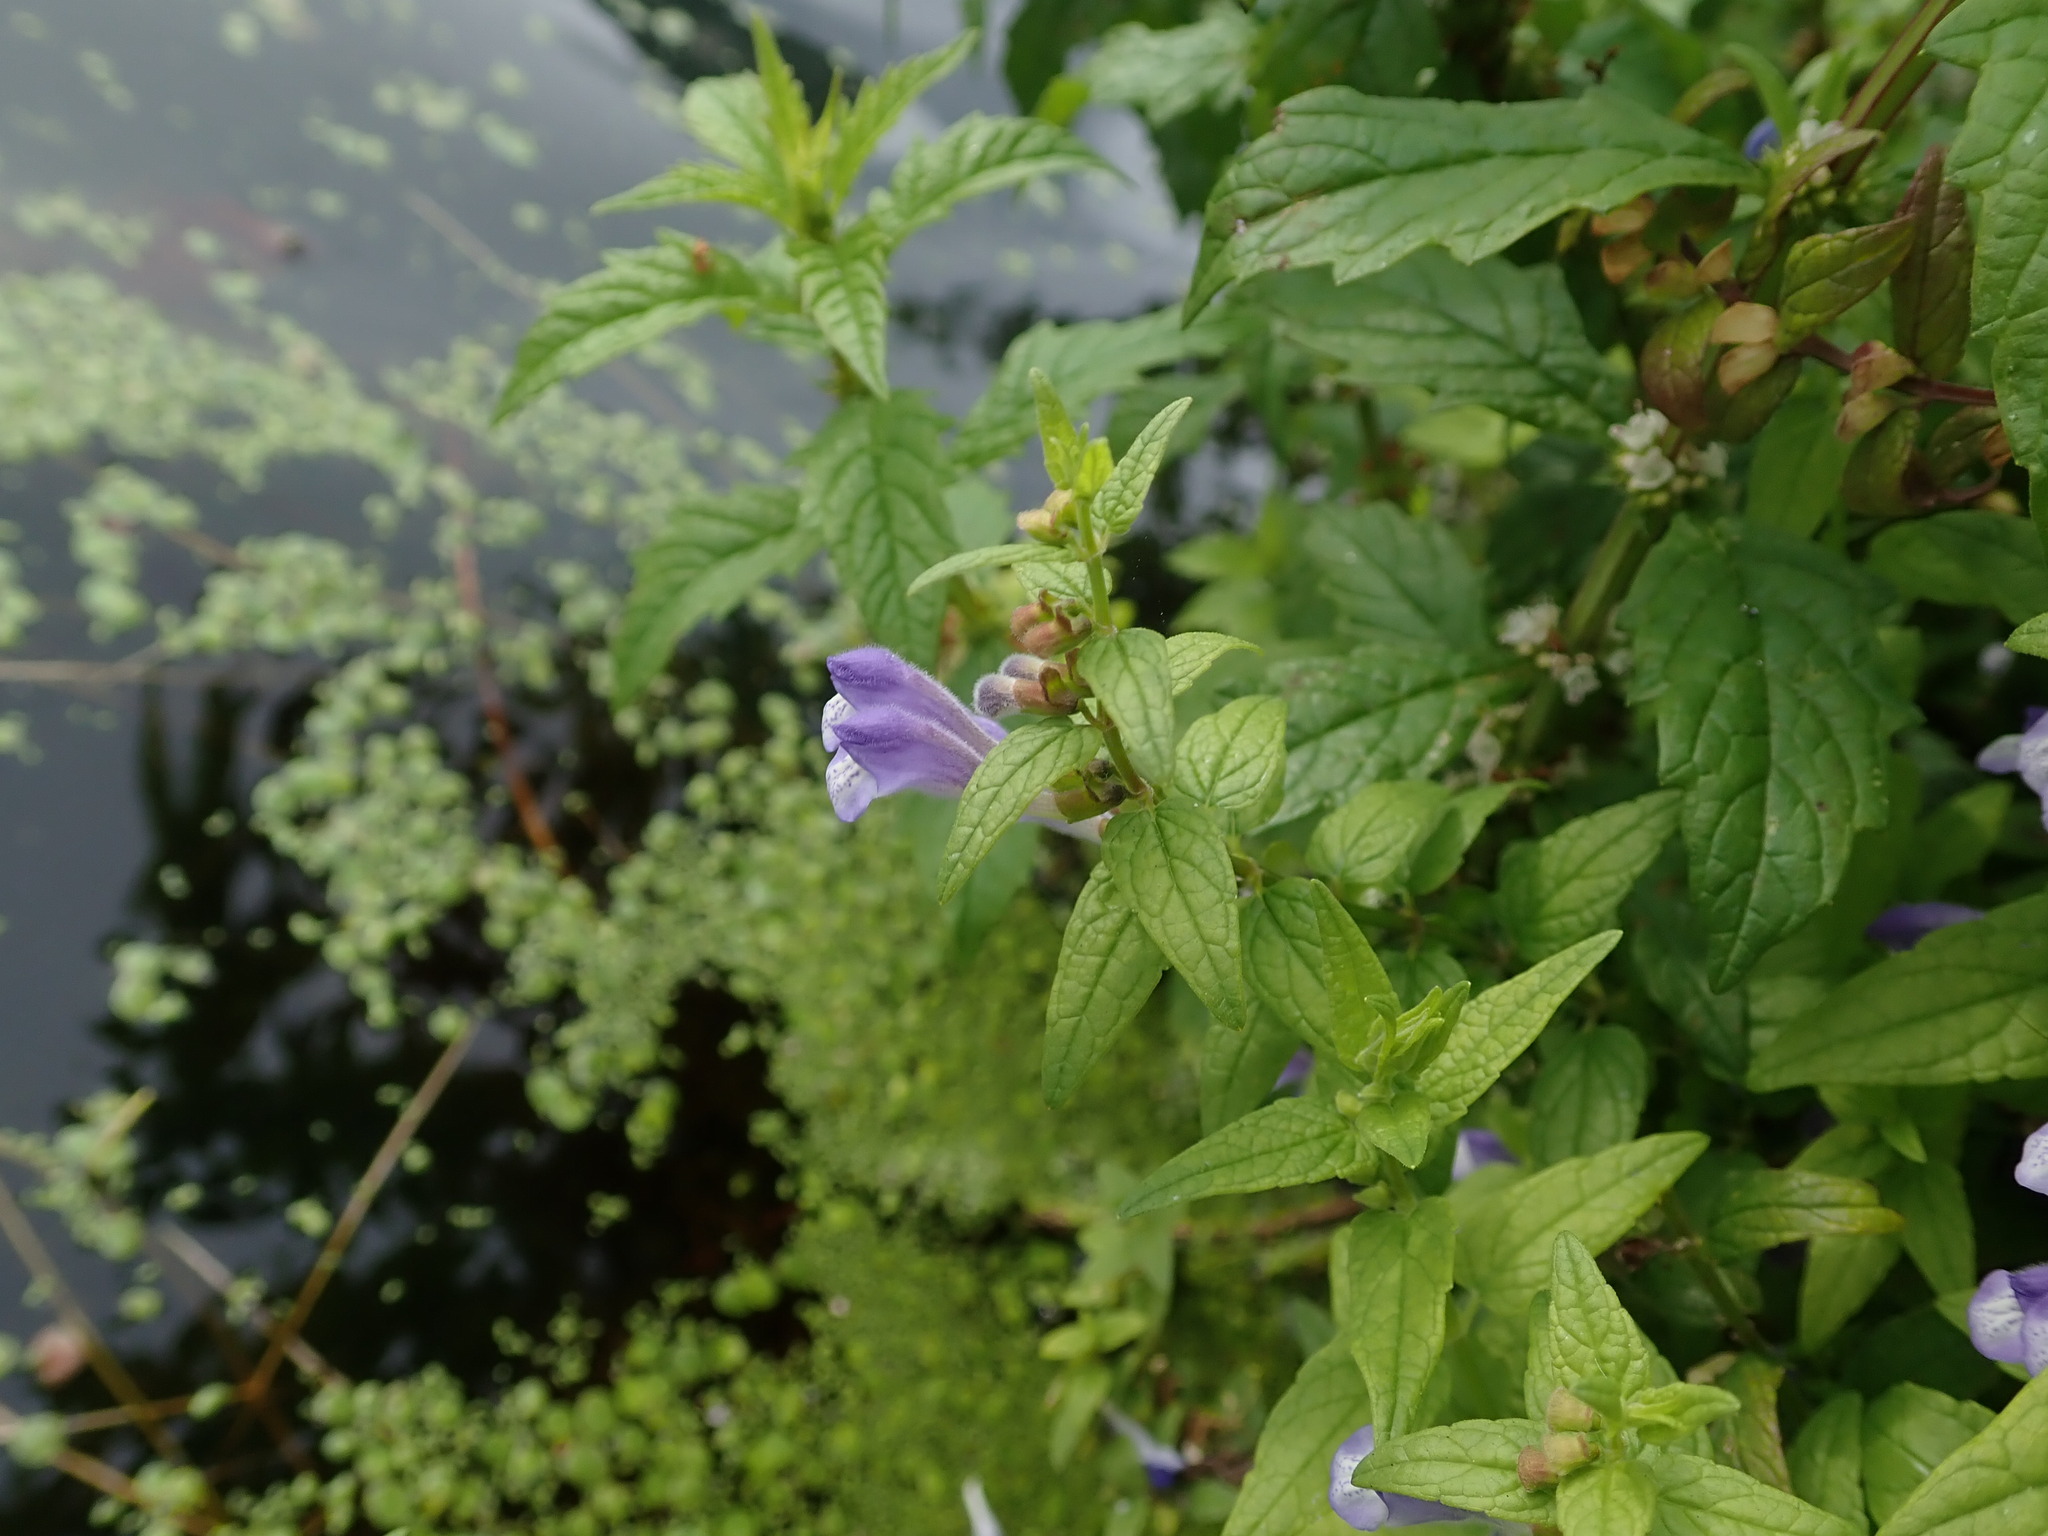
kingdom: Plantae
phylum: Tracheophyta
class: Magnoliopsida
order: Lamiales
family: Lamiaceae
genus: Scutellaria
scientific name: Scutellaria galericulata
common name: Skullcap
